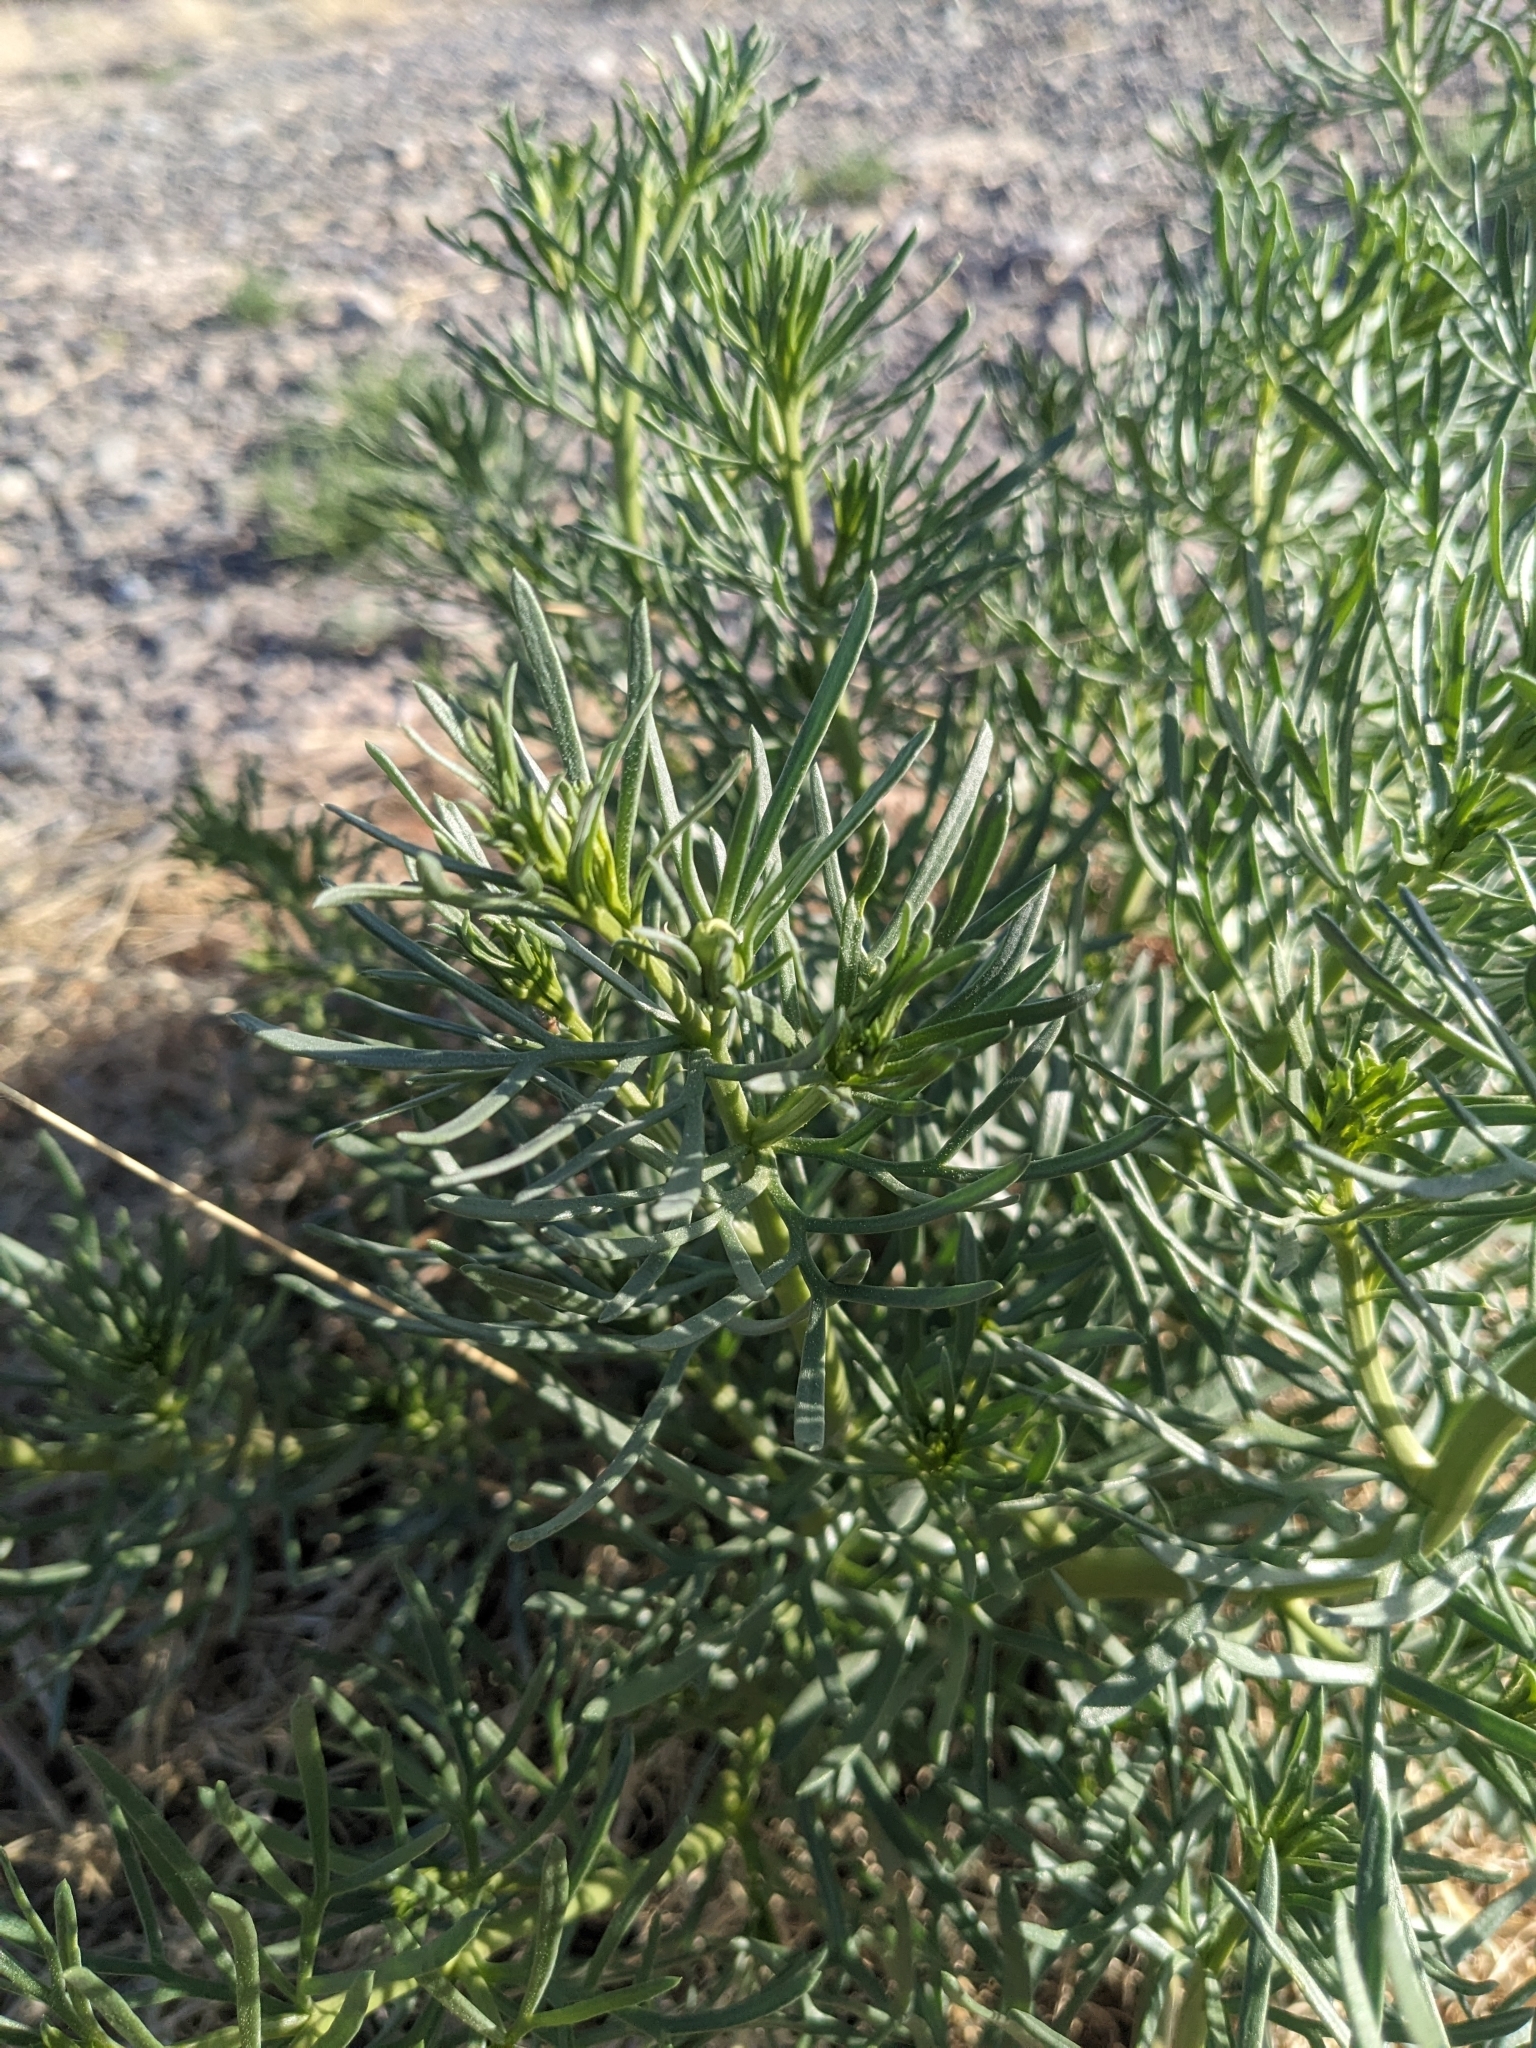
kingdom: Plantae
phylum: Tracheophyta
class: Magnoliopsida
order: Sapindales
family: Tetradiclidaceae
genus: Peganum
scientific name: Peganum harmala
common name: Harmal peganum
